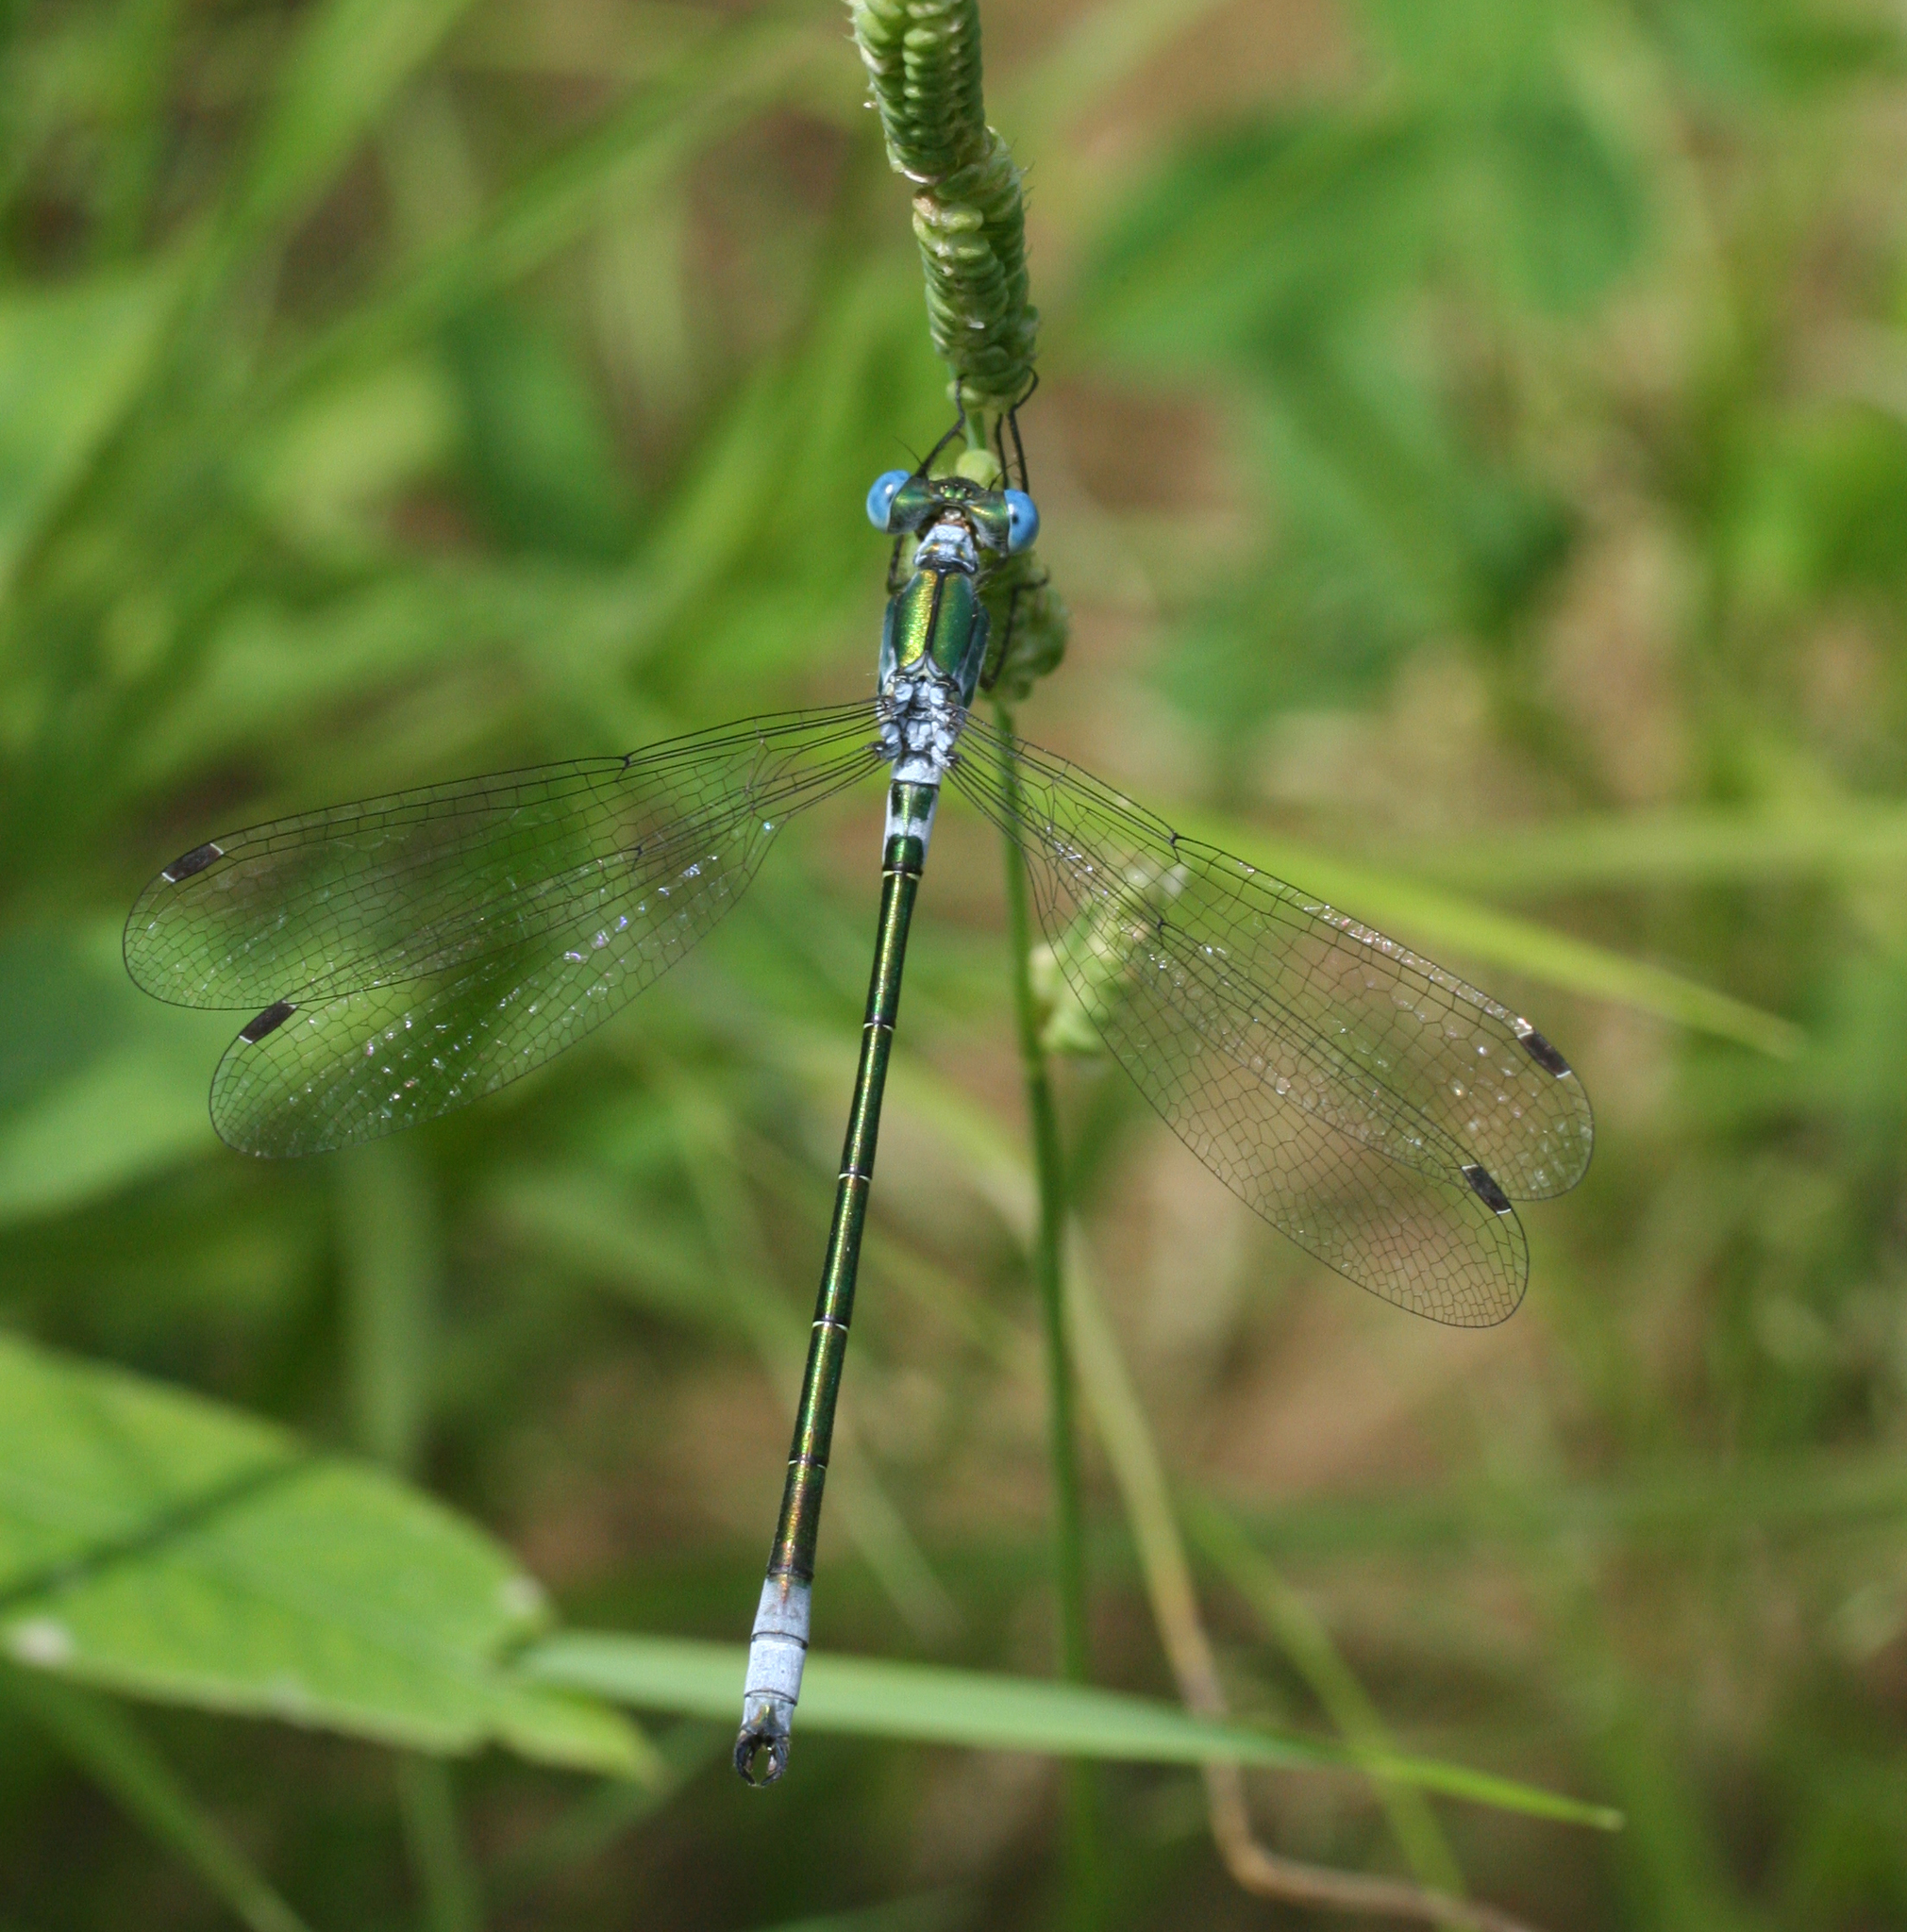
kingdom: Animalia
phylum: Arthropoda
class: Insecta
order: Odonata
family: Lestidae
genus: Lestes
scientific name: Lestes dryas
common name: Scarce emerald damselfly
